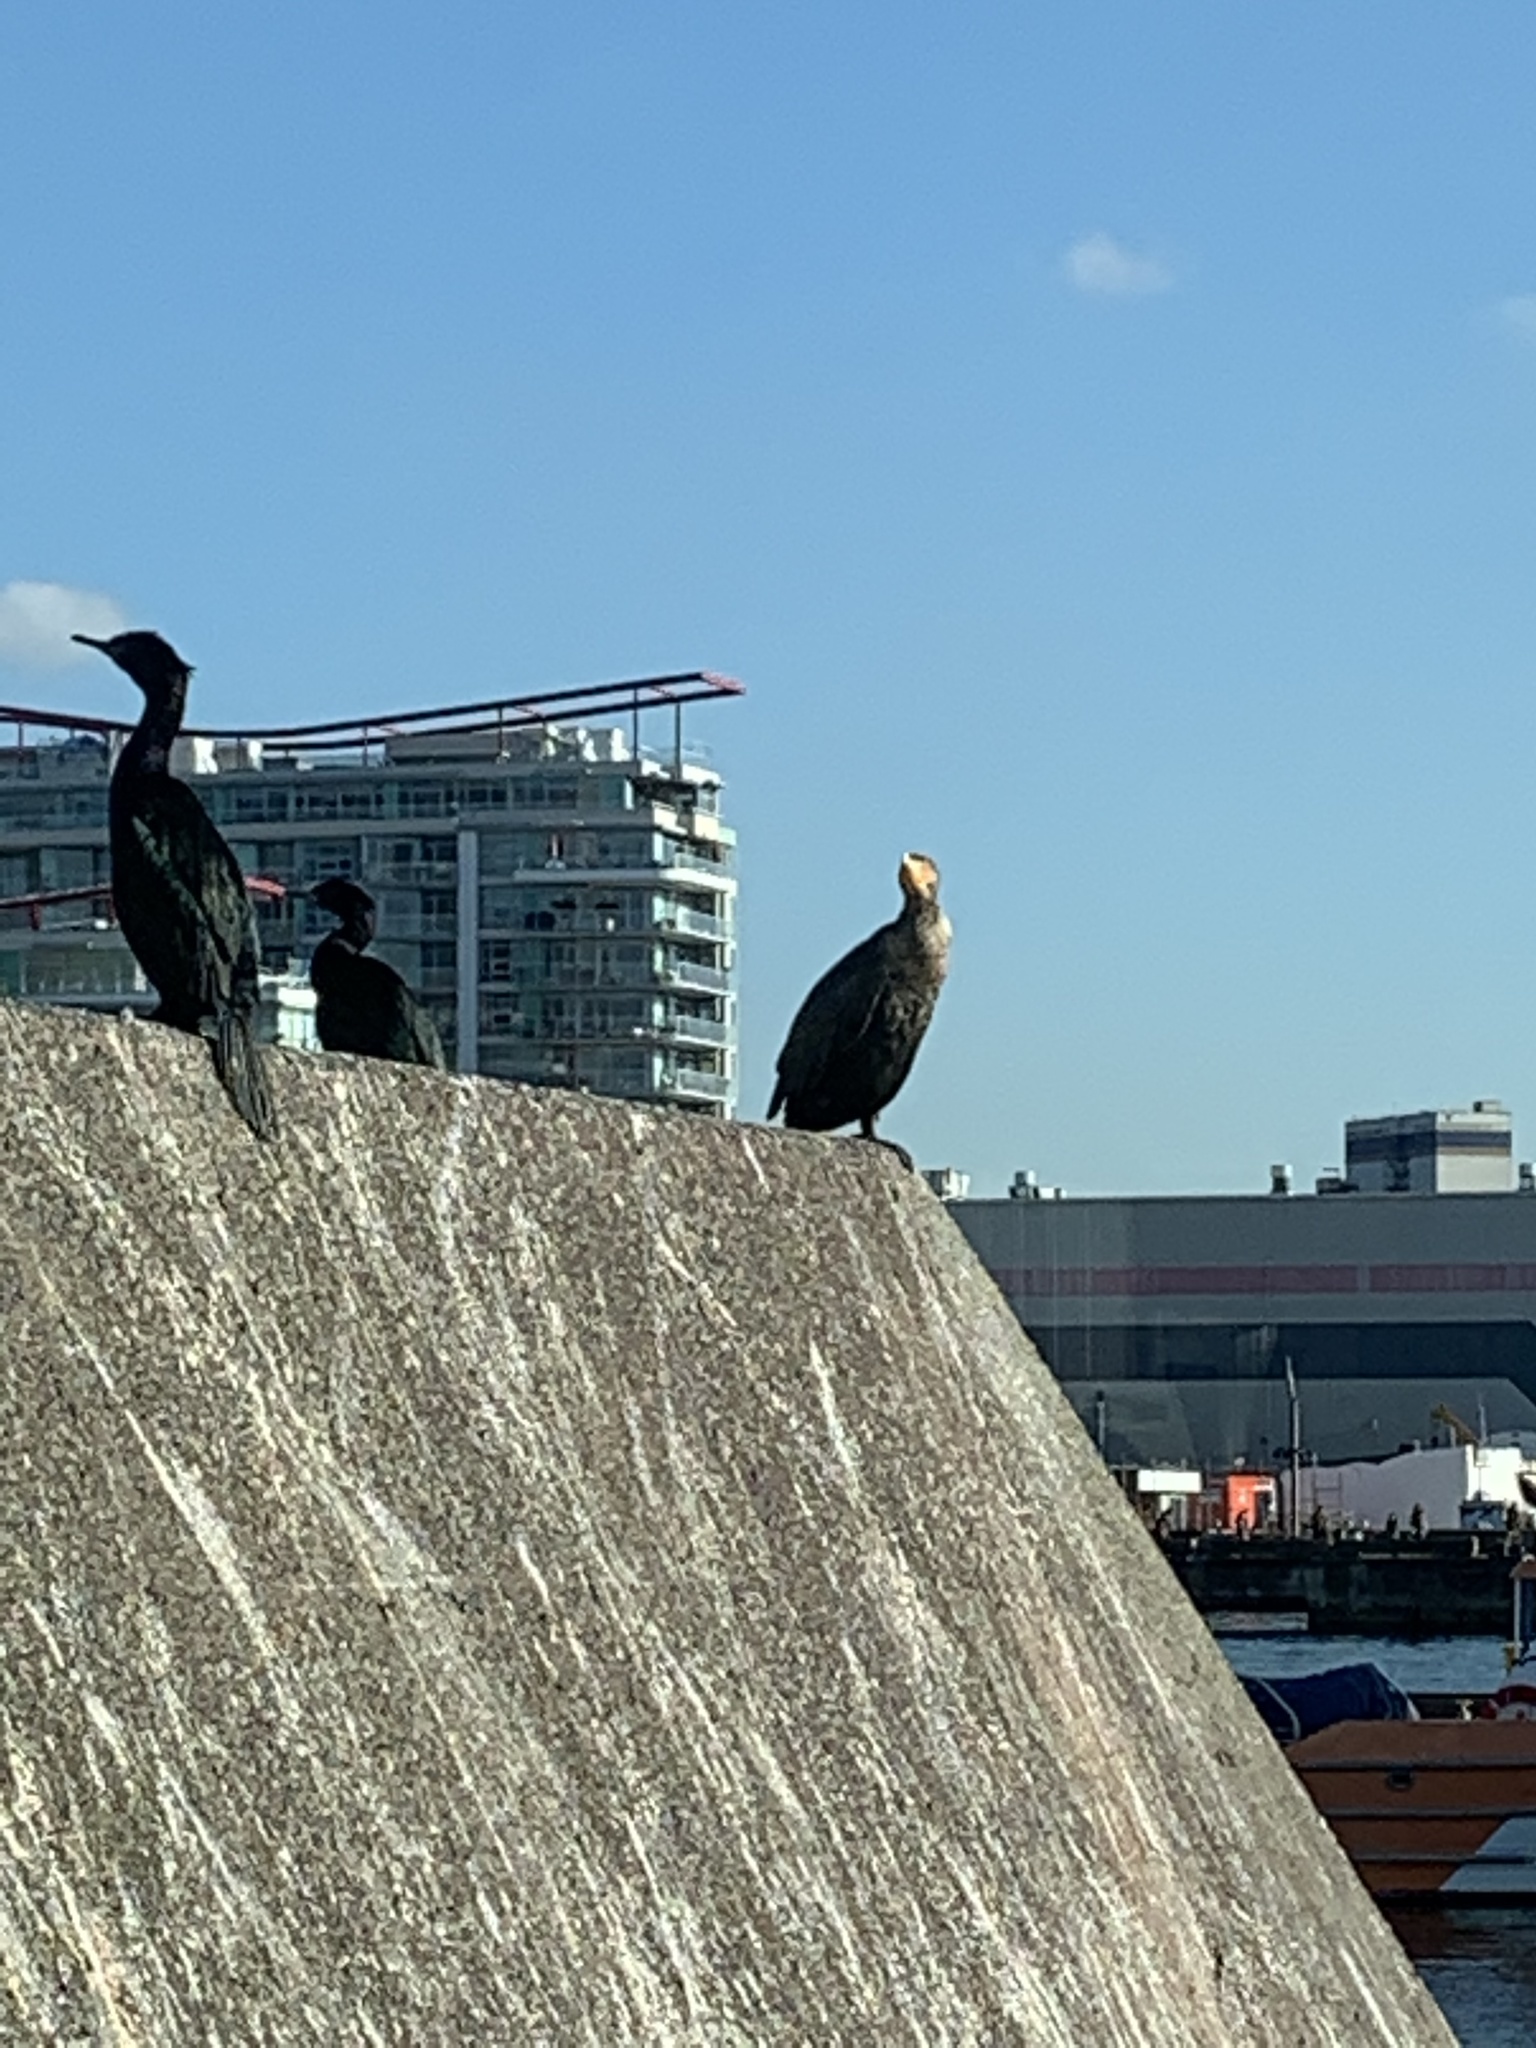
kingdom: Animalia
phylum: Chordata
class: Aves
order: Suliformes
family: Phalacrocoracidae
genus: Phalacrocorax
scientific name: Phalacrocorax auritus
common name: Double-crested cormorant
